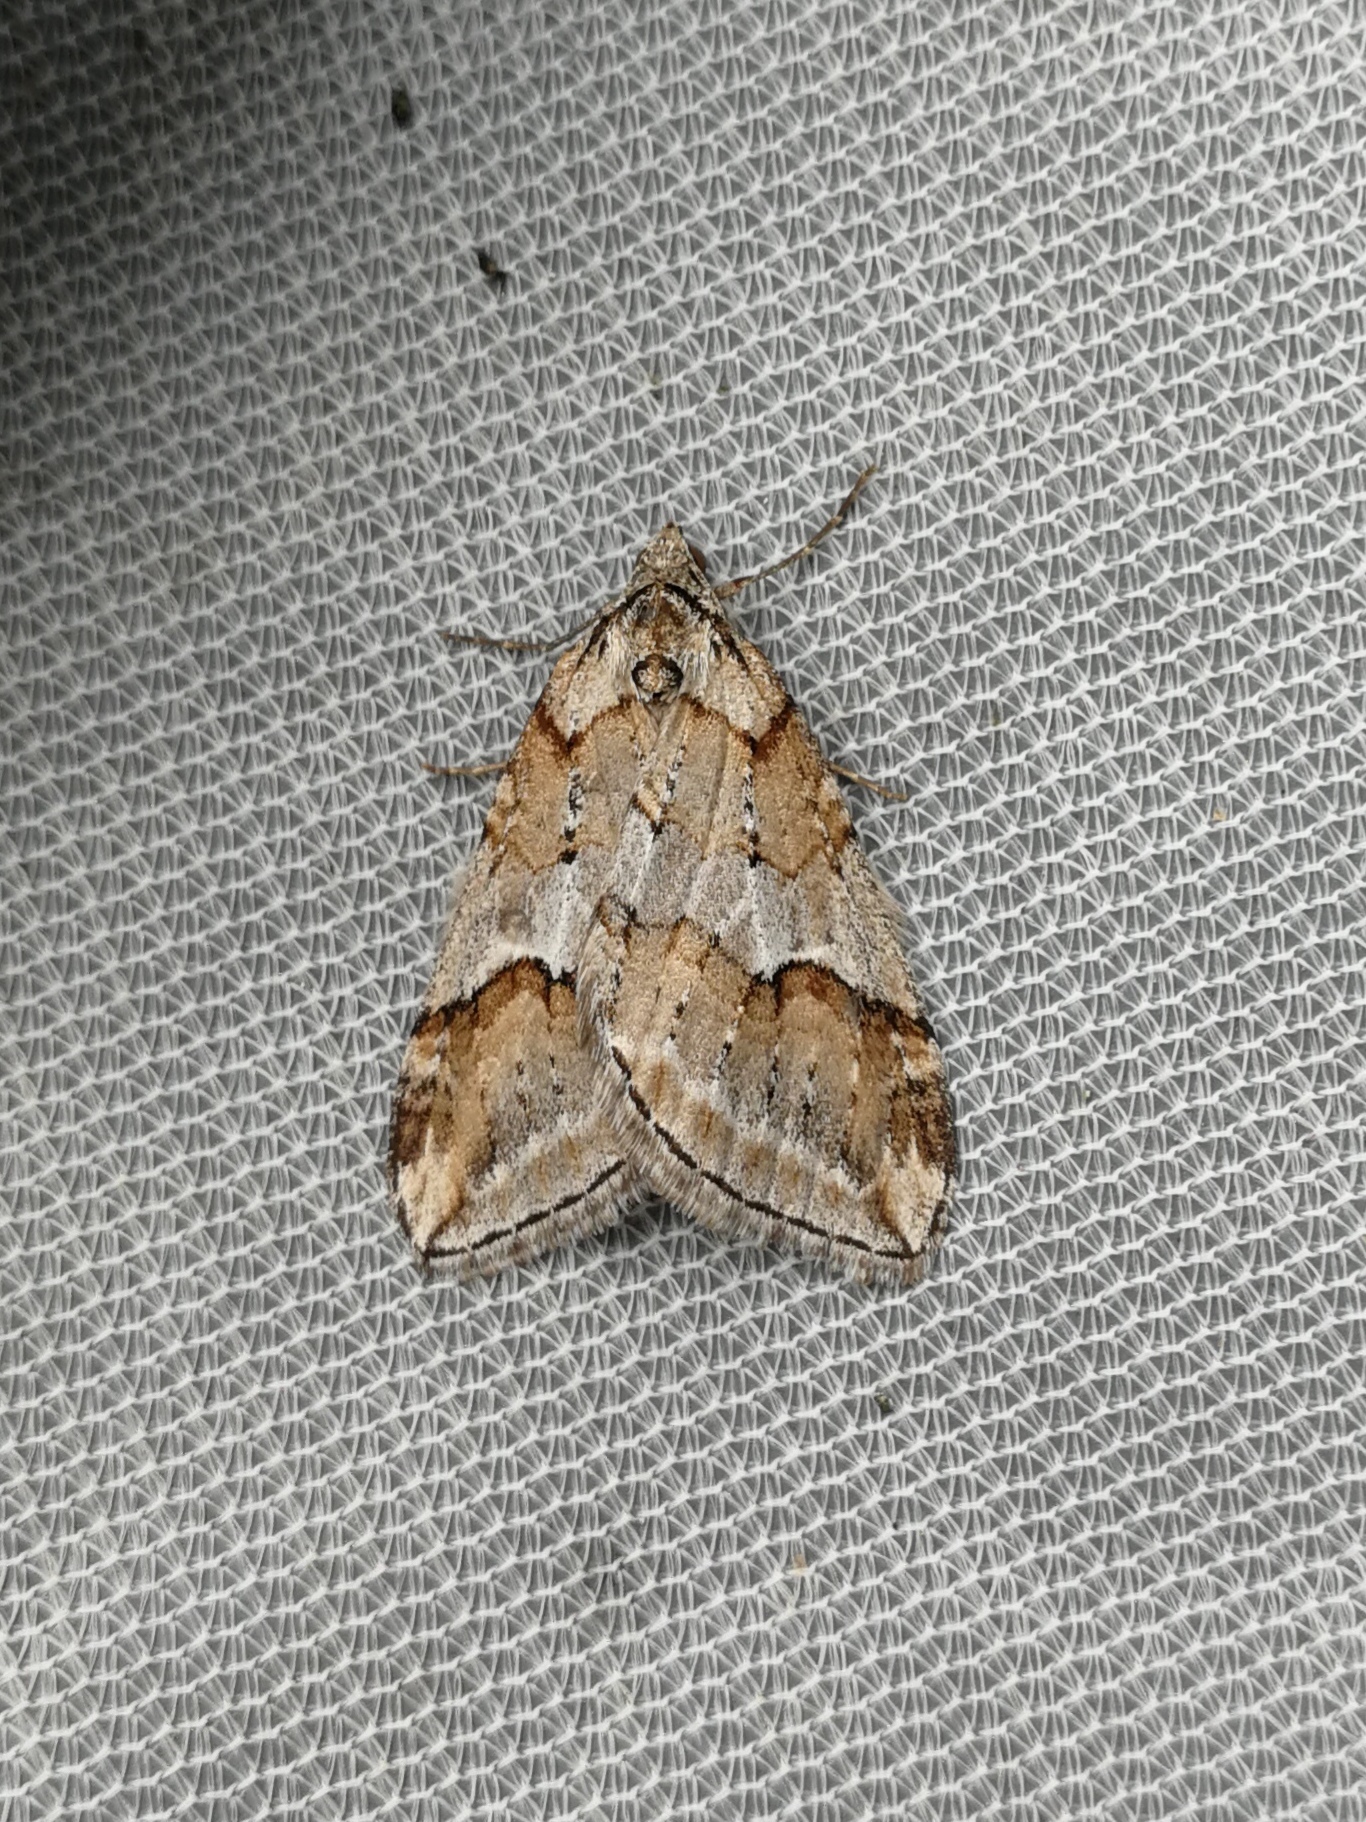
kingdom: Animalia
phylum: Arthropoda
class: Insecta
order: Lepidoptera
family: Geometridae
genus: Chesias
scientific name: Chesias rufata
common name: Broom-tip
